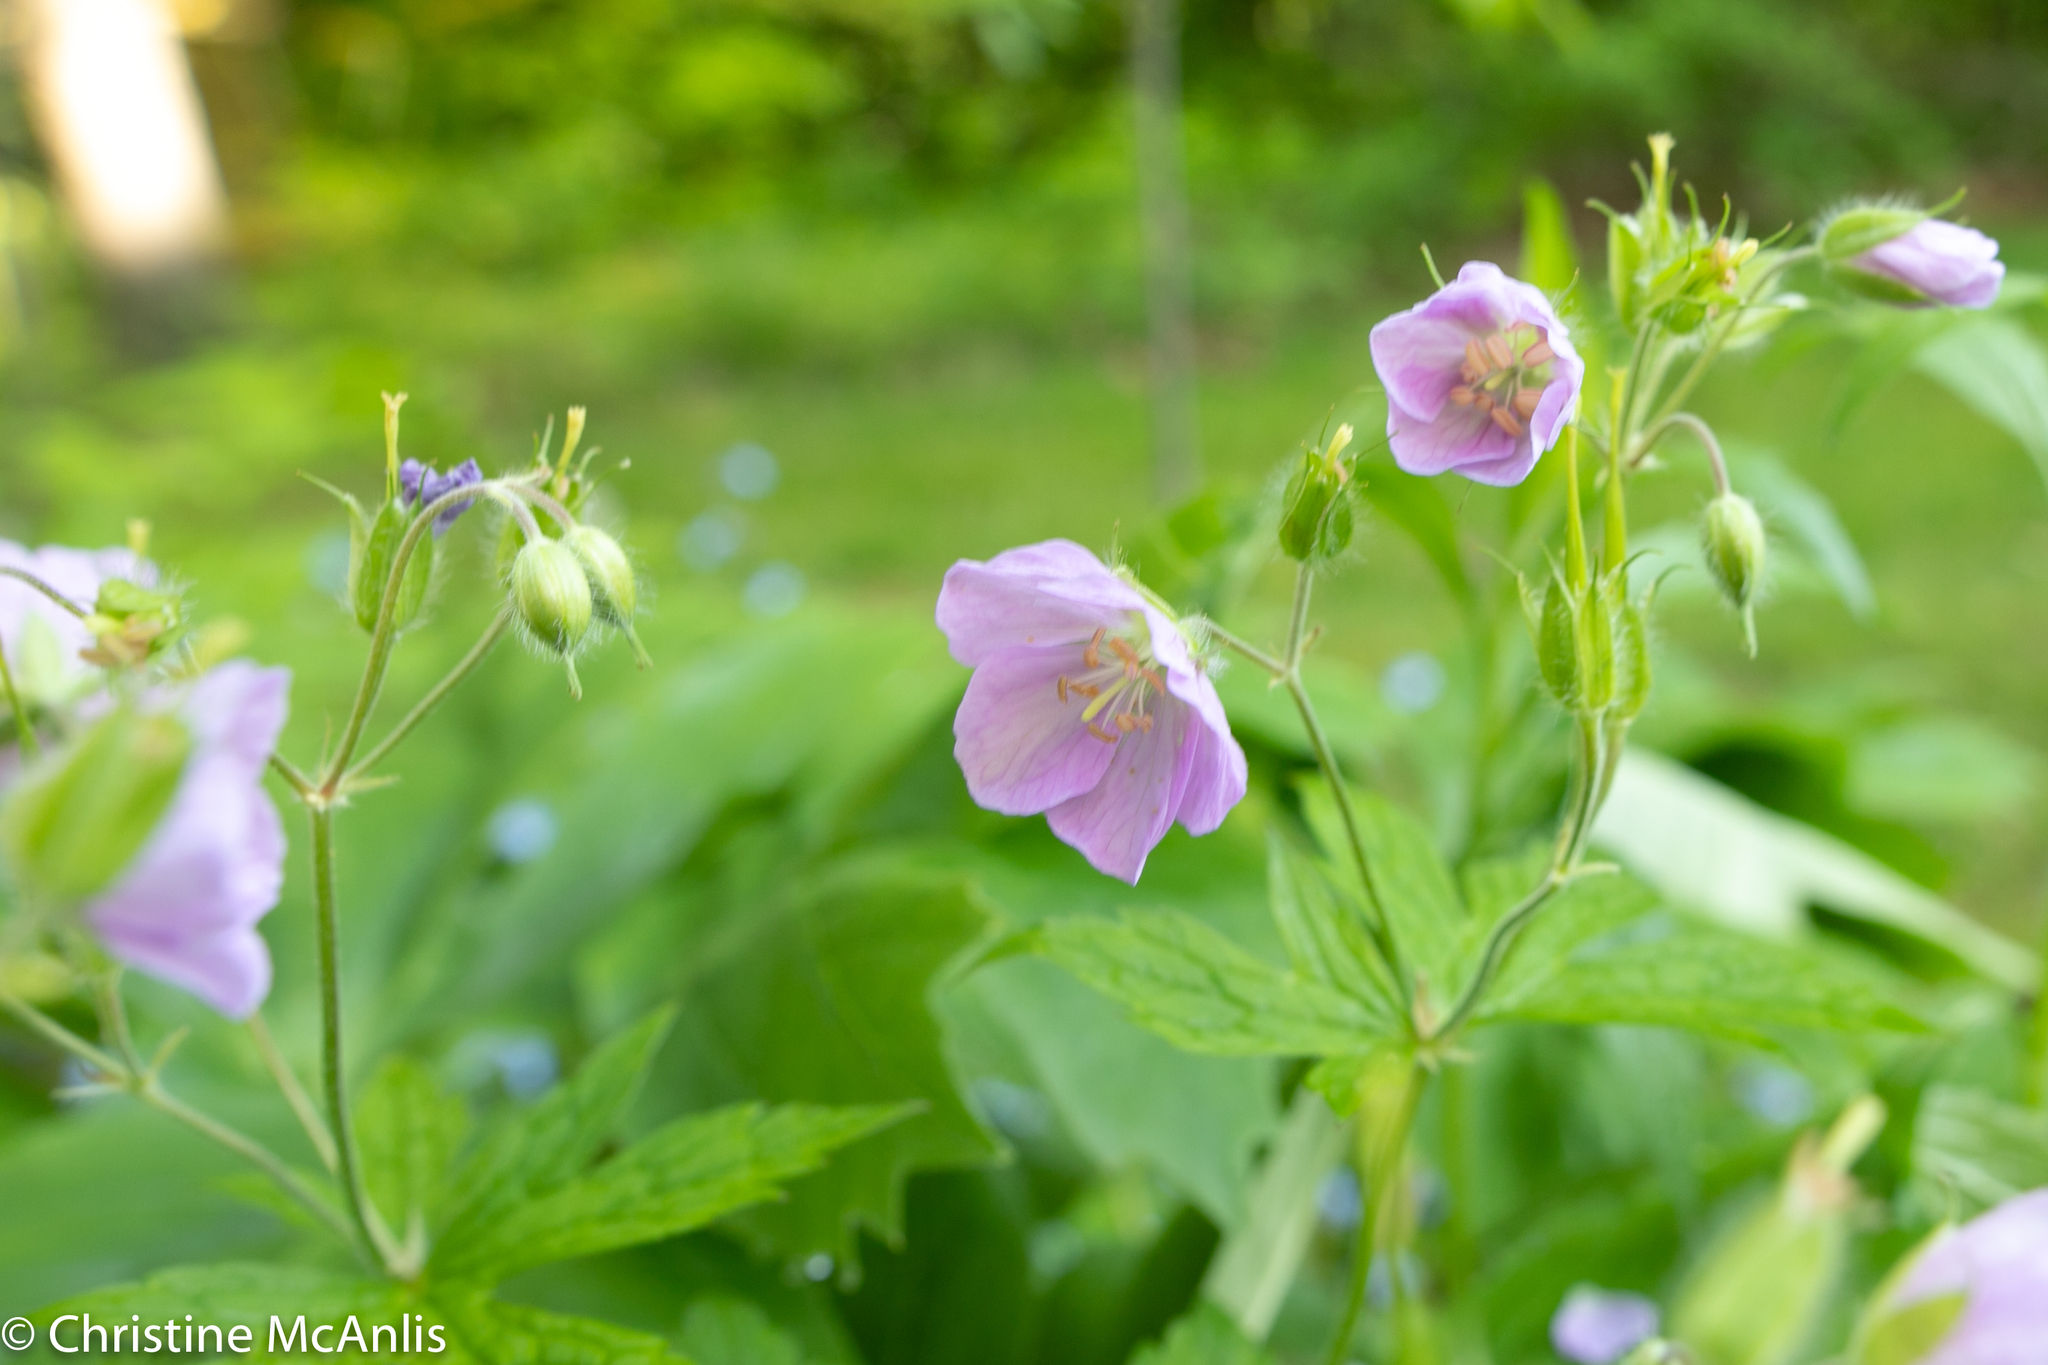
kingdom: Plantae
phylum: Tracheophyta
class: Magnoliopsida
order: Geraniales
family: Geraniaceae
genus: Geranium
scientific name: Geranium maculatum
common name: Spotted geranium
